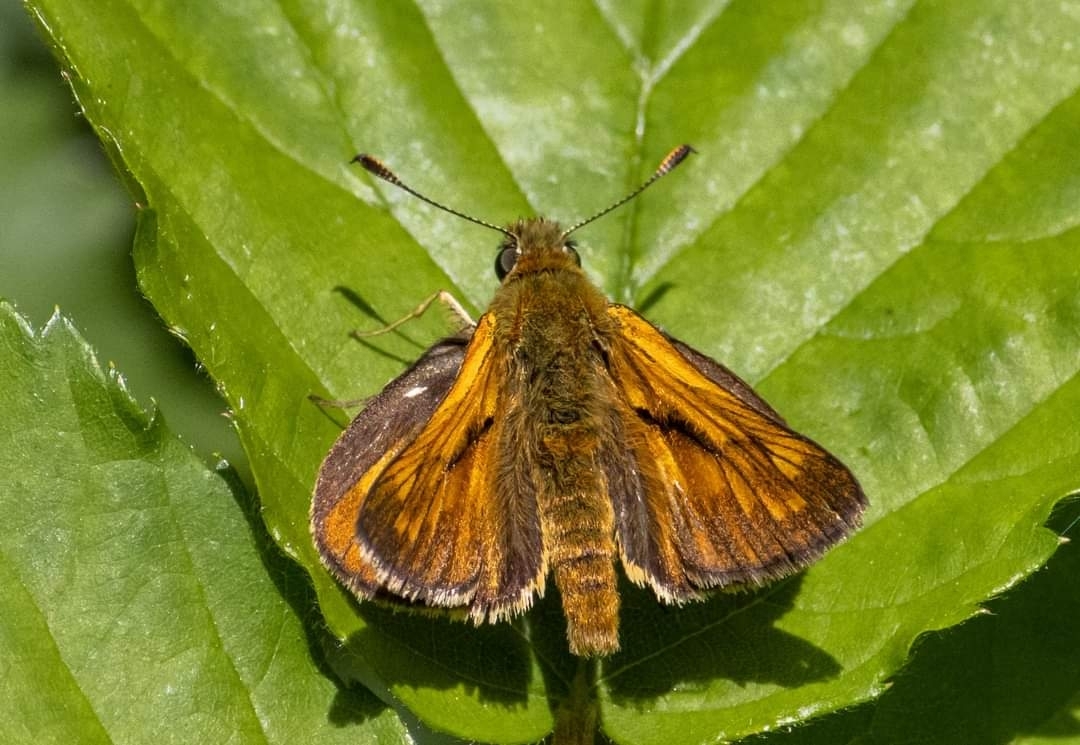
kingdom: Animalia
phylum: Arthropoda
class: Insecta
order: Lepidoptera
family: Hesperiidae
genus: Ochlodes
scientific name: Ochlodes venata
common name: Large skipper
